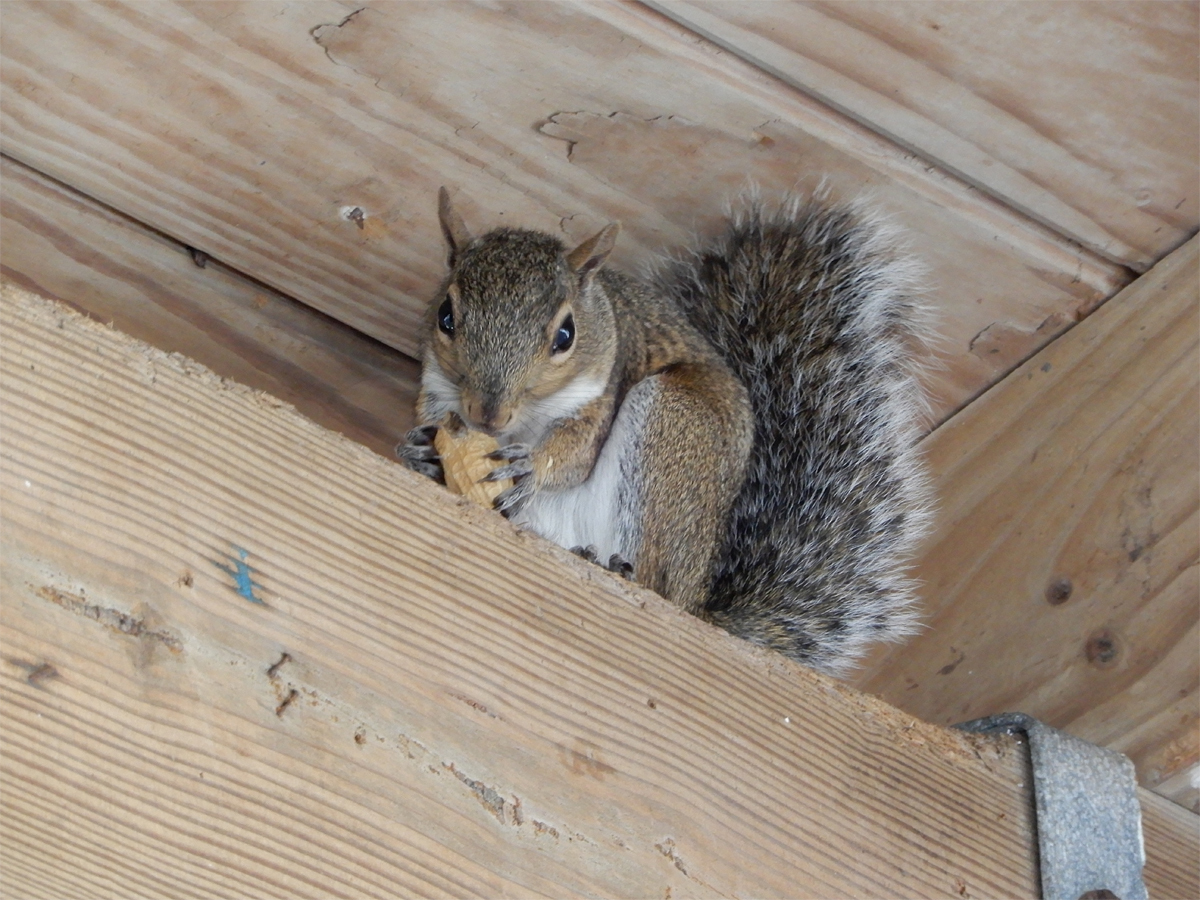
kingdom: Animalia
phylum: Chordata
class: Mammalia
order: Rodentia
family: Sciuridae
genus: Sciurus
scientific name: Sciurus carolinensis
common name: Eastern gray squirrel
